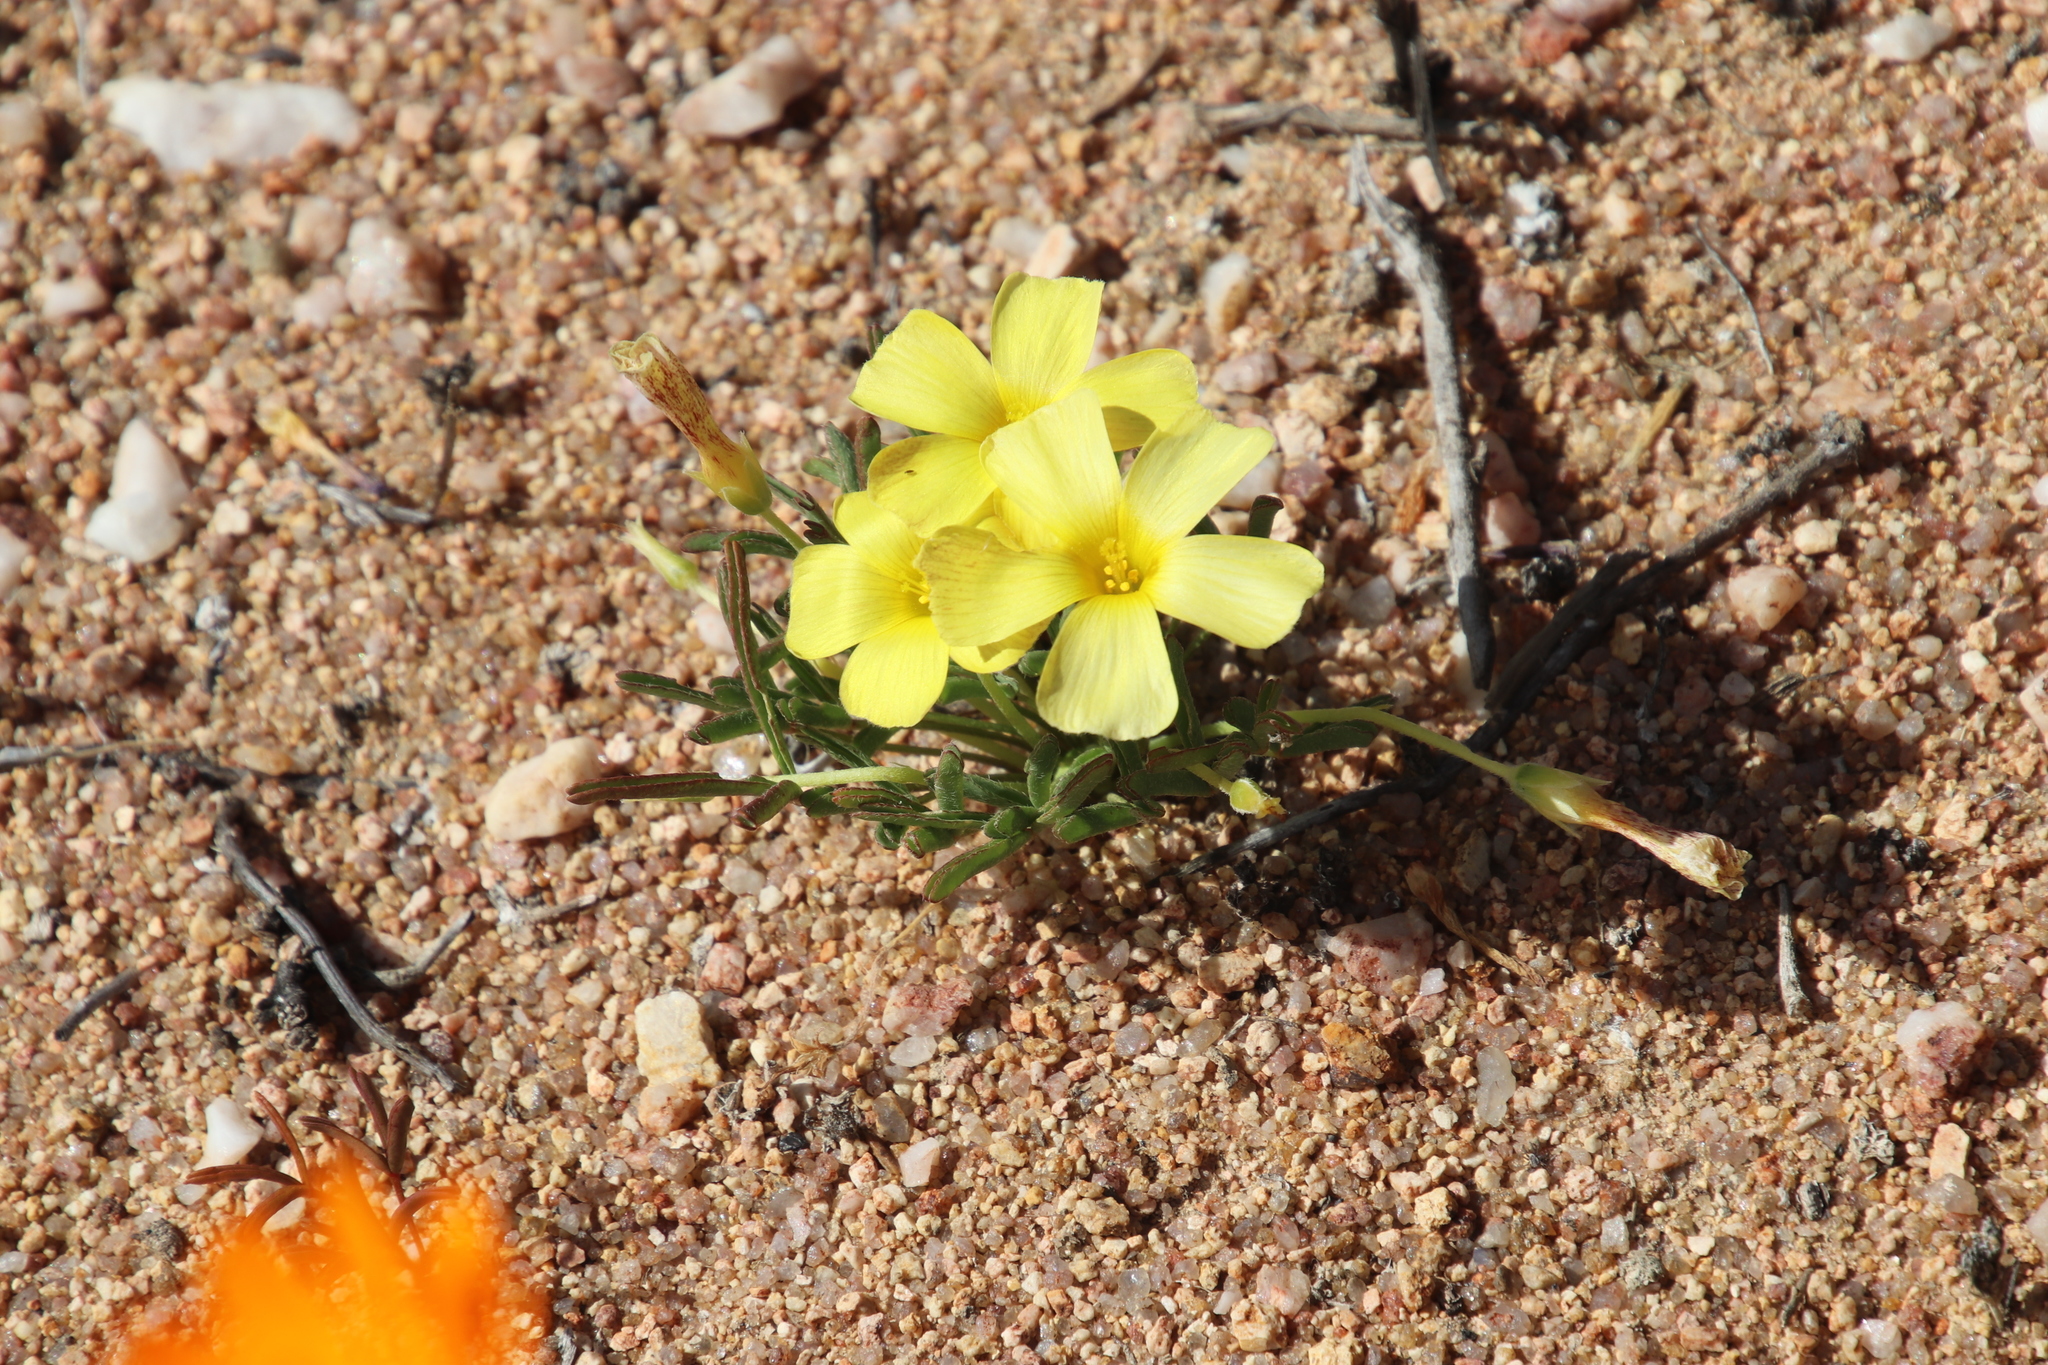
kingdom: Plantae
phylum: Tracheophyta
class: Magnoliopsida
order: Oxalidales
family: Oxalidaceae
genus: Oxalis
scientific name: Oxalis obtusa
